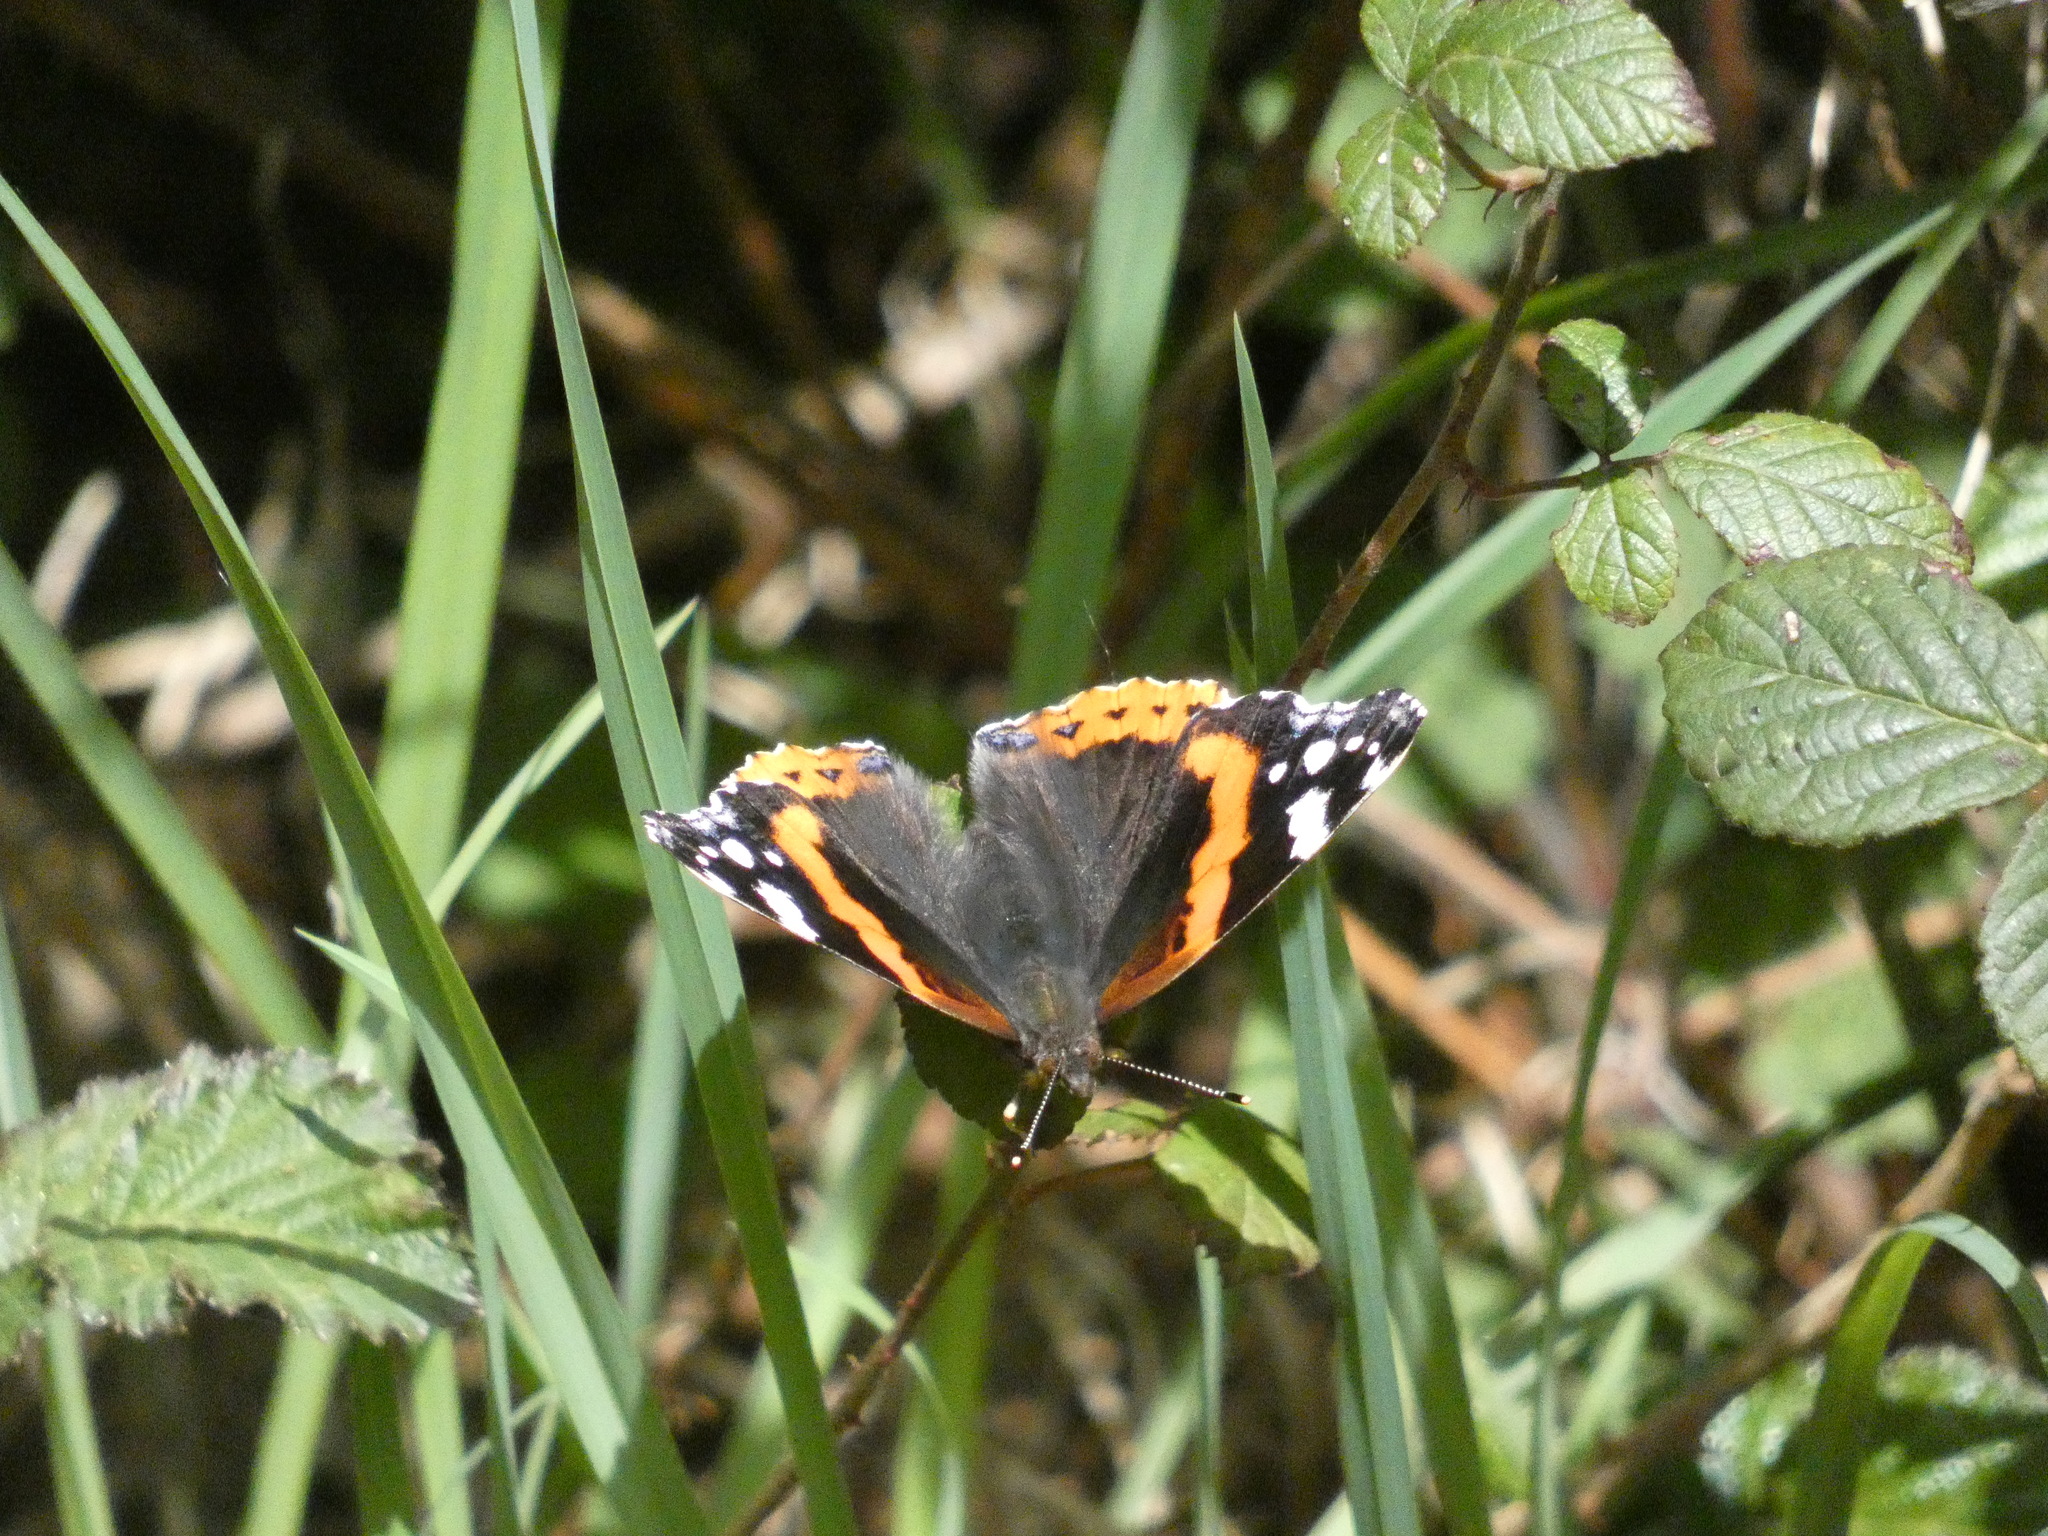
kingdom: Animalia
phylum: Arthropoda
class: Insecta
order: Lepidoptera
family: Nymphalidae
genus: Vanessa
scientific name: Vanessa atalanta
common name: Red admiral
